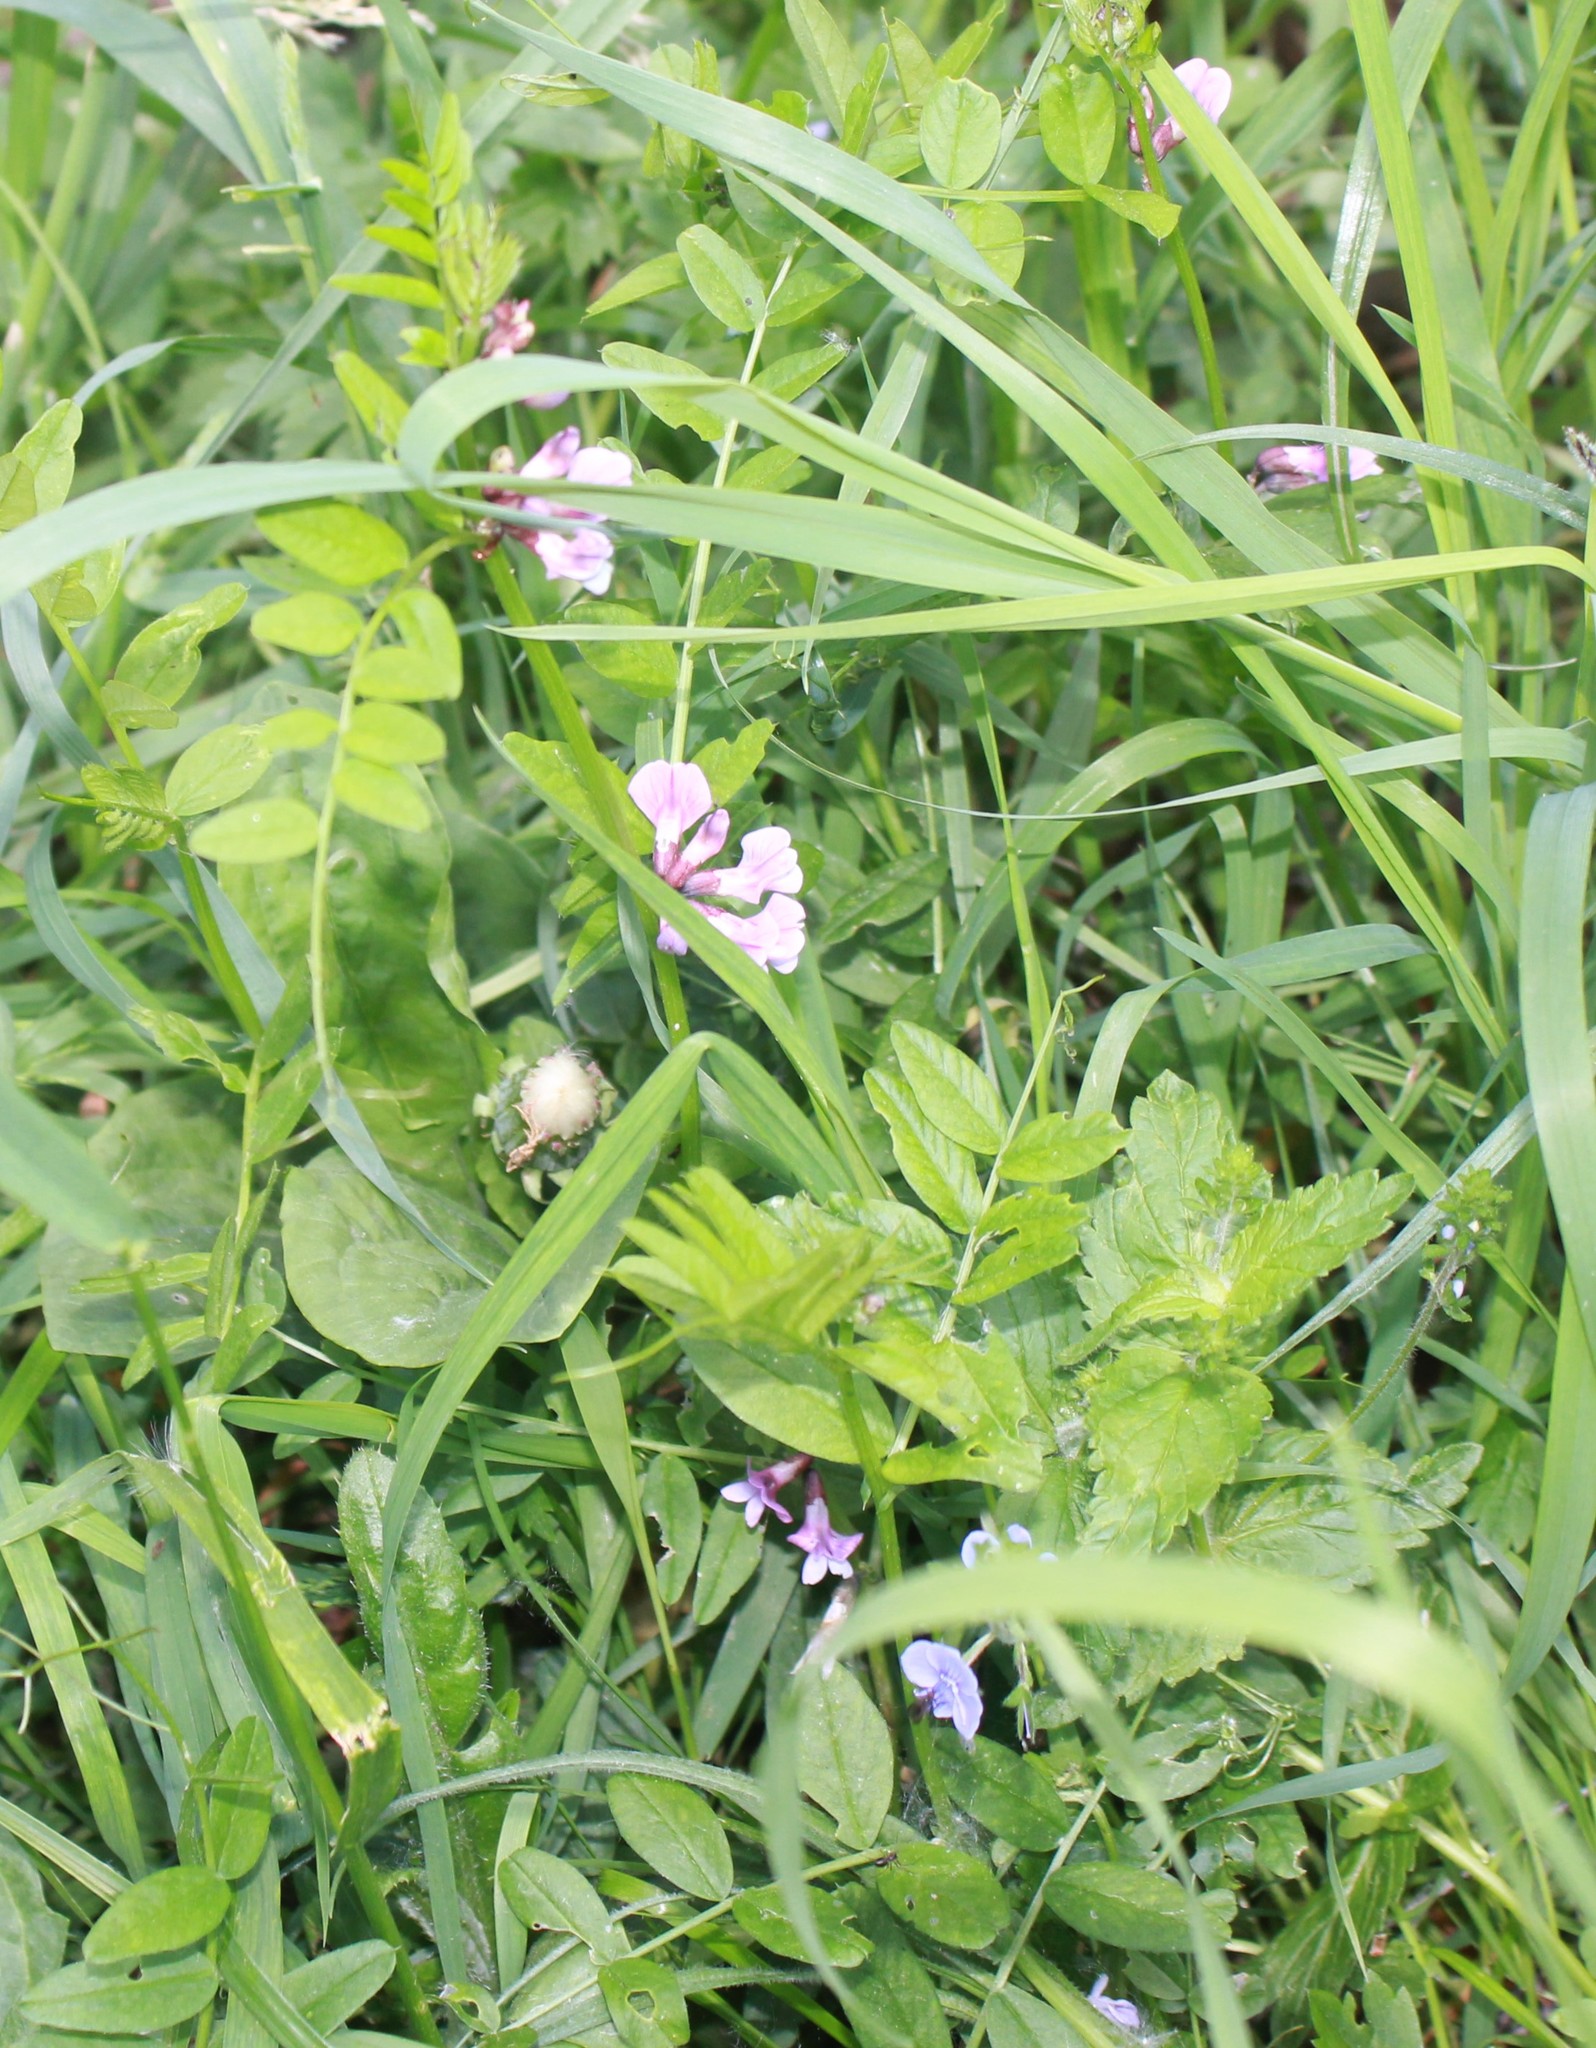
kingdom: Plantae
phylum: Tracheophyta
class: Magnoliopsida
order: Fabales
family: Fabaceae
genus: Vicia
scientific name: Vicia sepium
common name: Bush vetch
